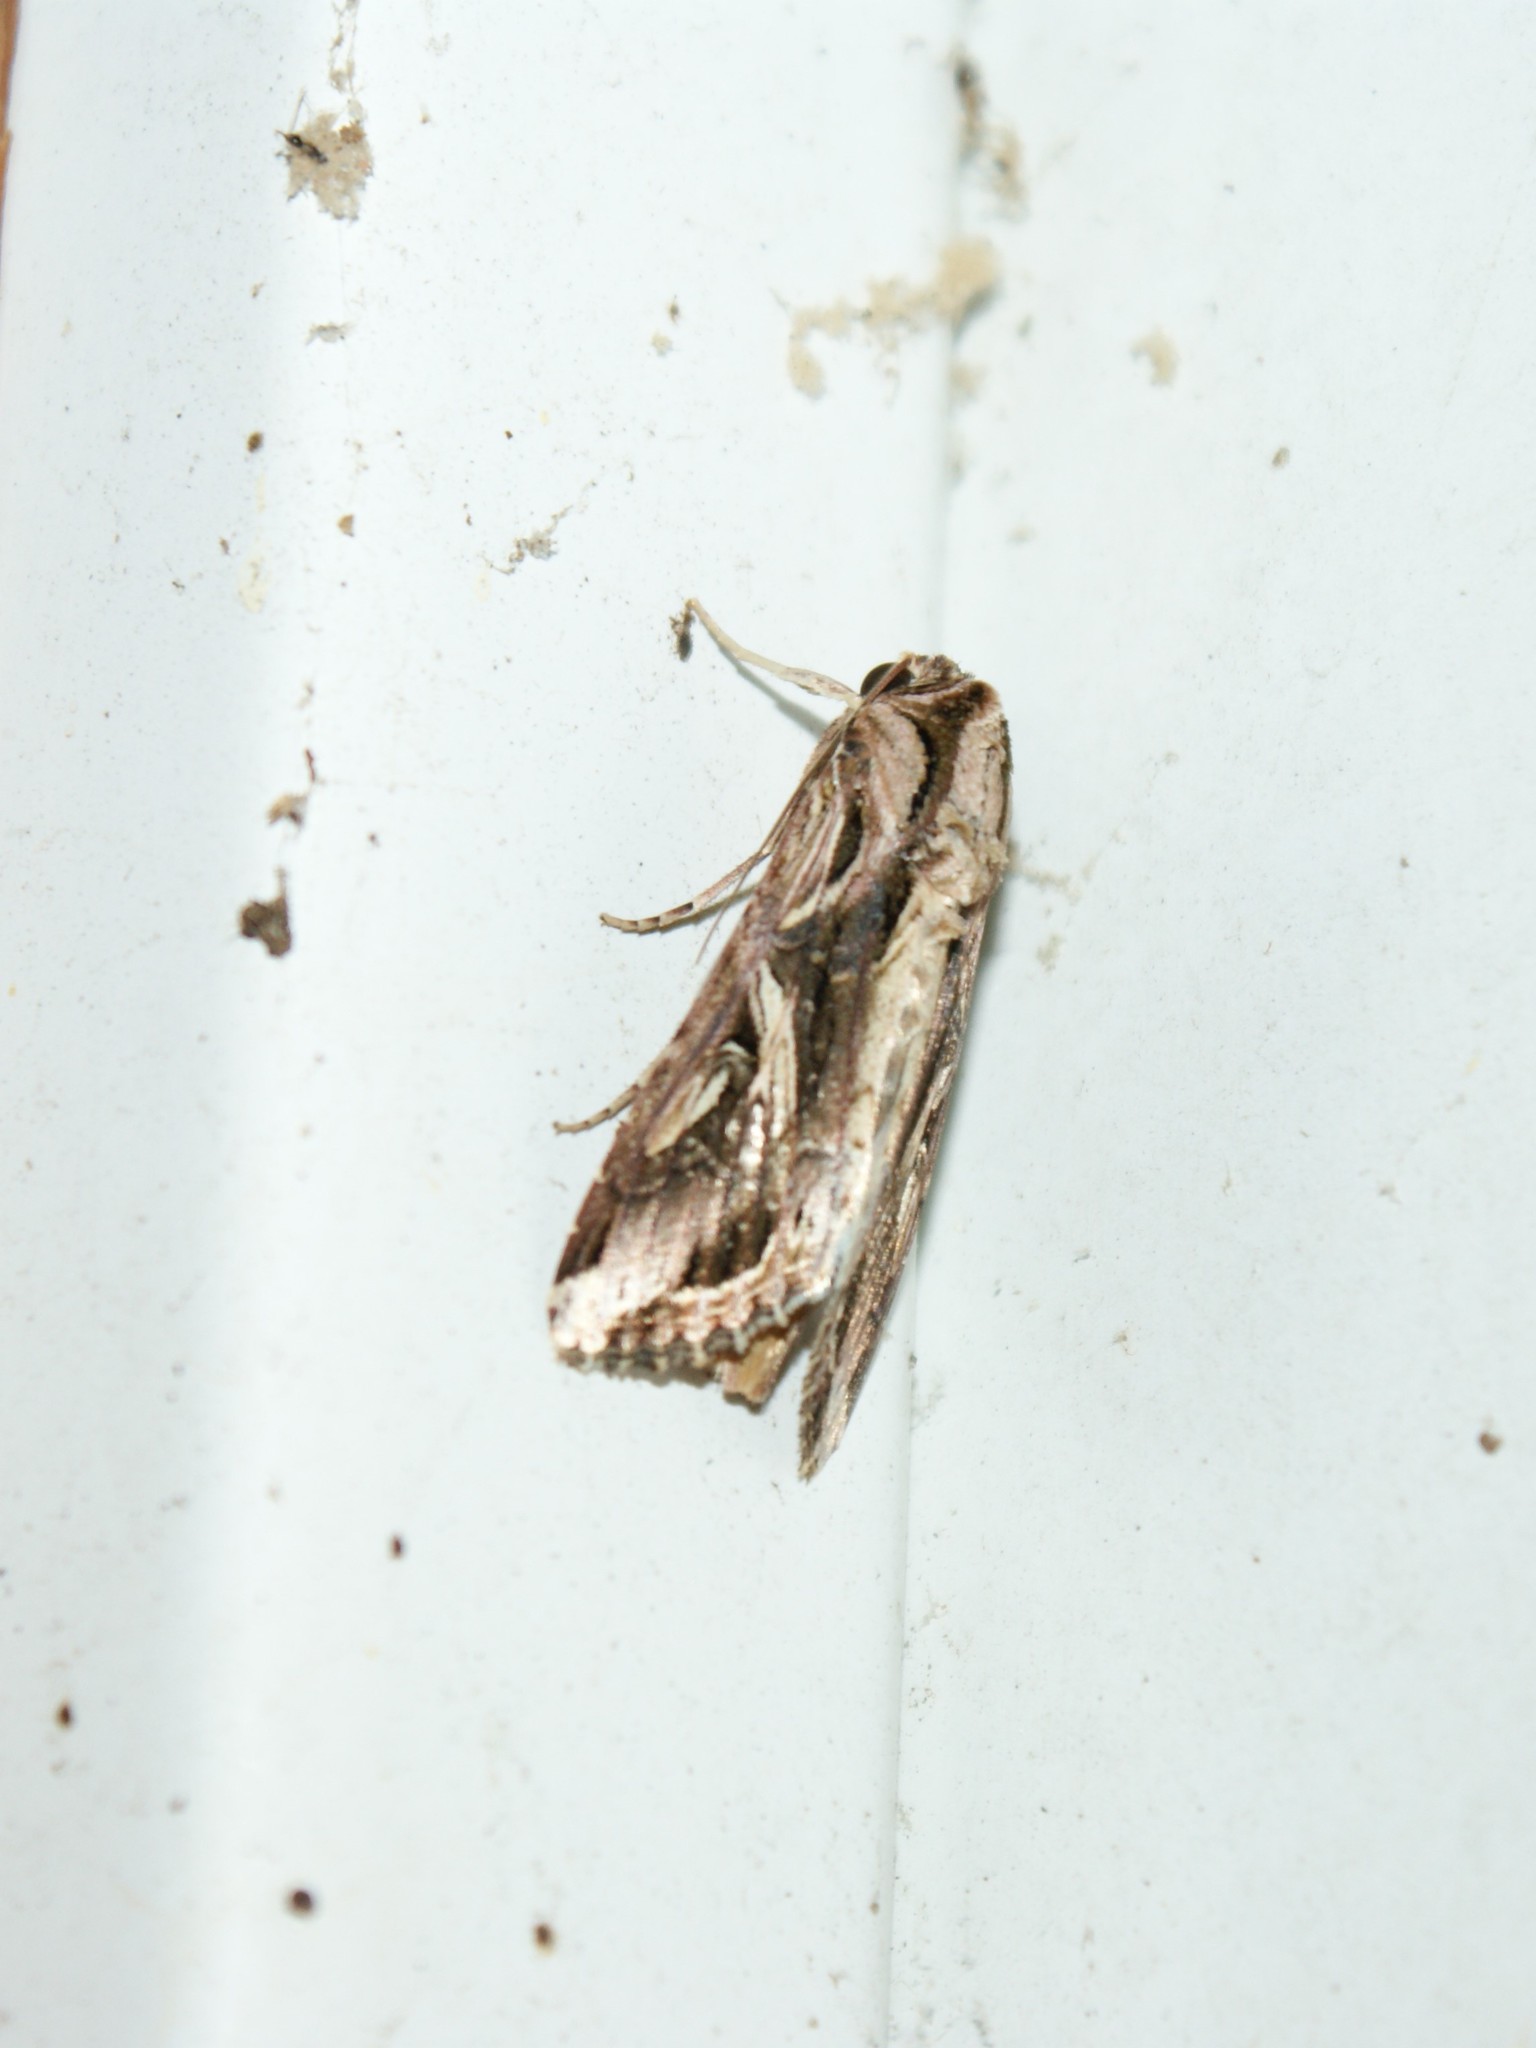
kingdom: Animalia
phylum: Arthropoda
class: Insecta
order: Lepidoptera
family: Noctuidae
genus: Spodoptera
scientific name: Spodoptera dolichos
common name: Sweetpotato armyworm
